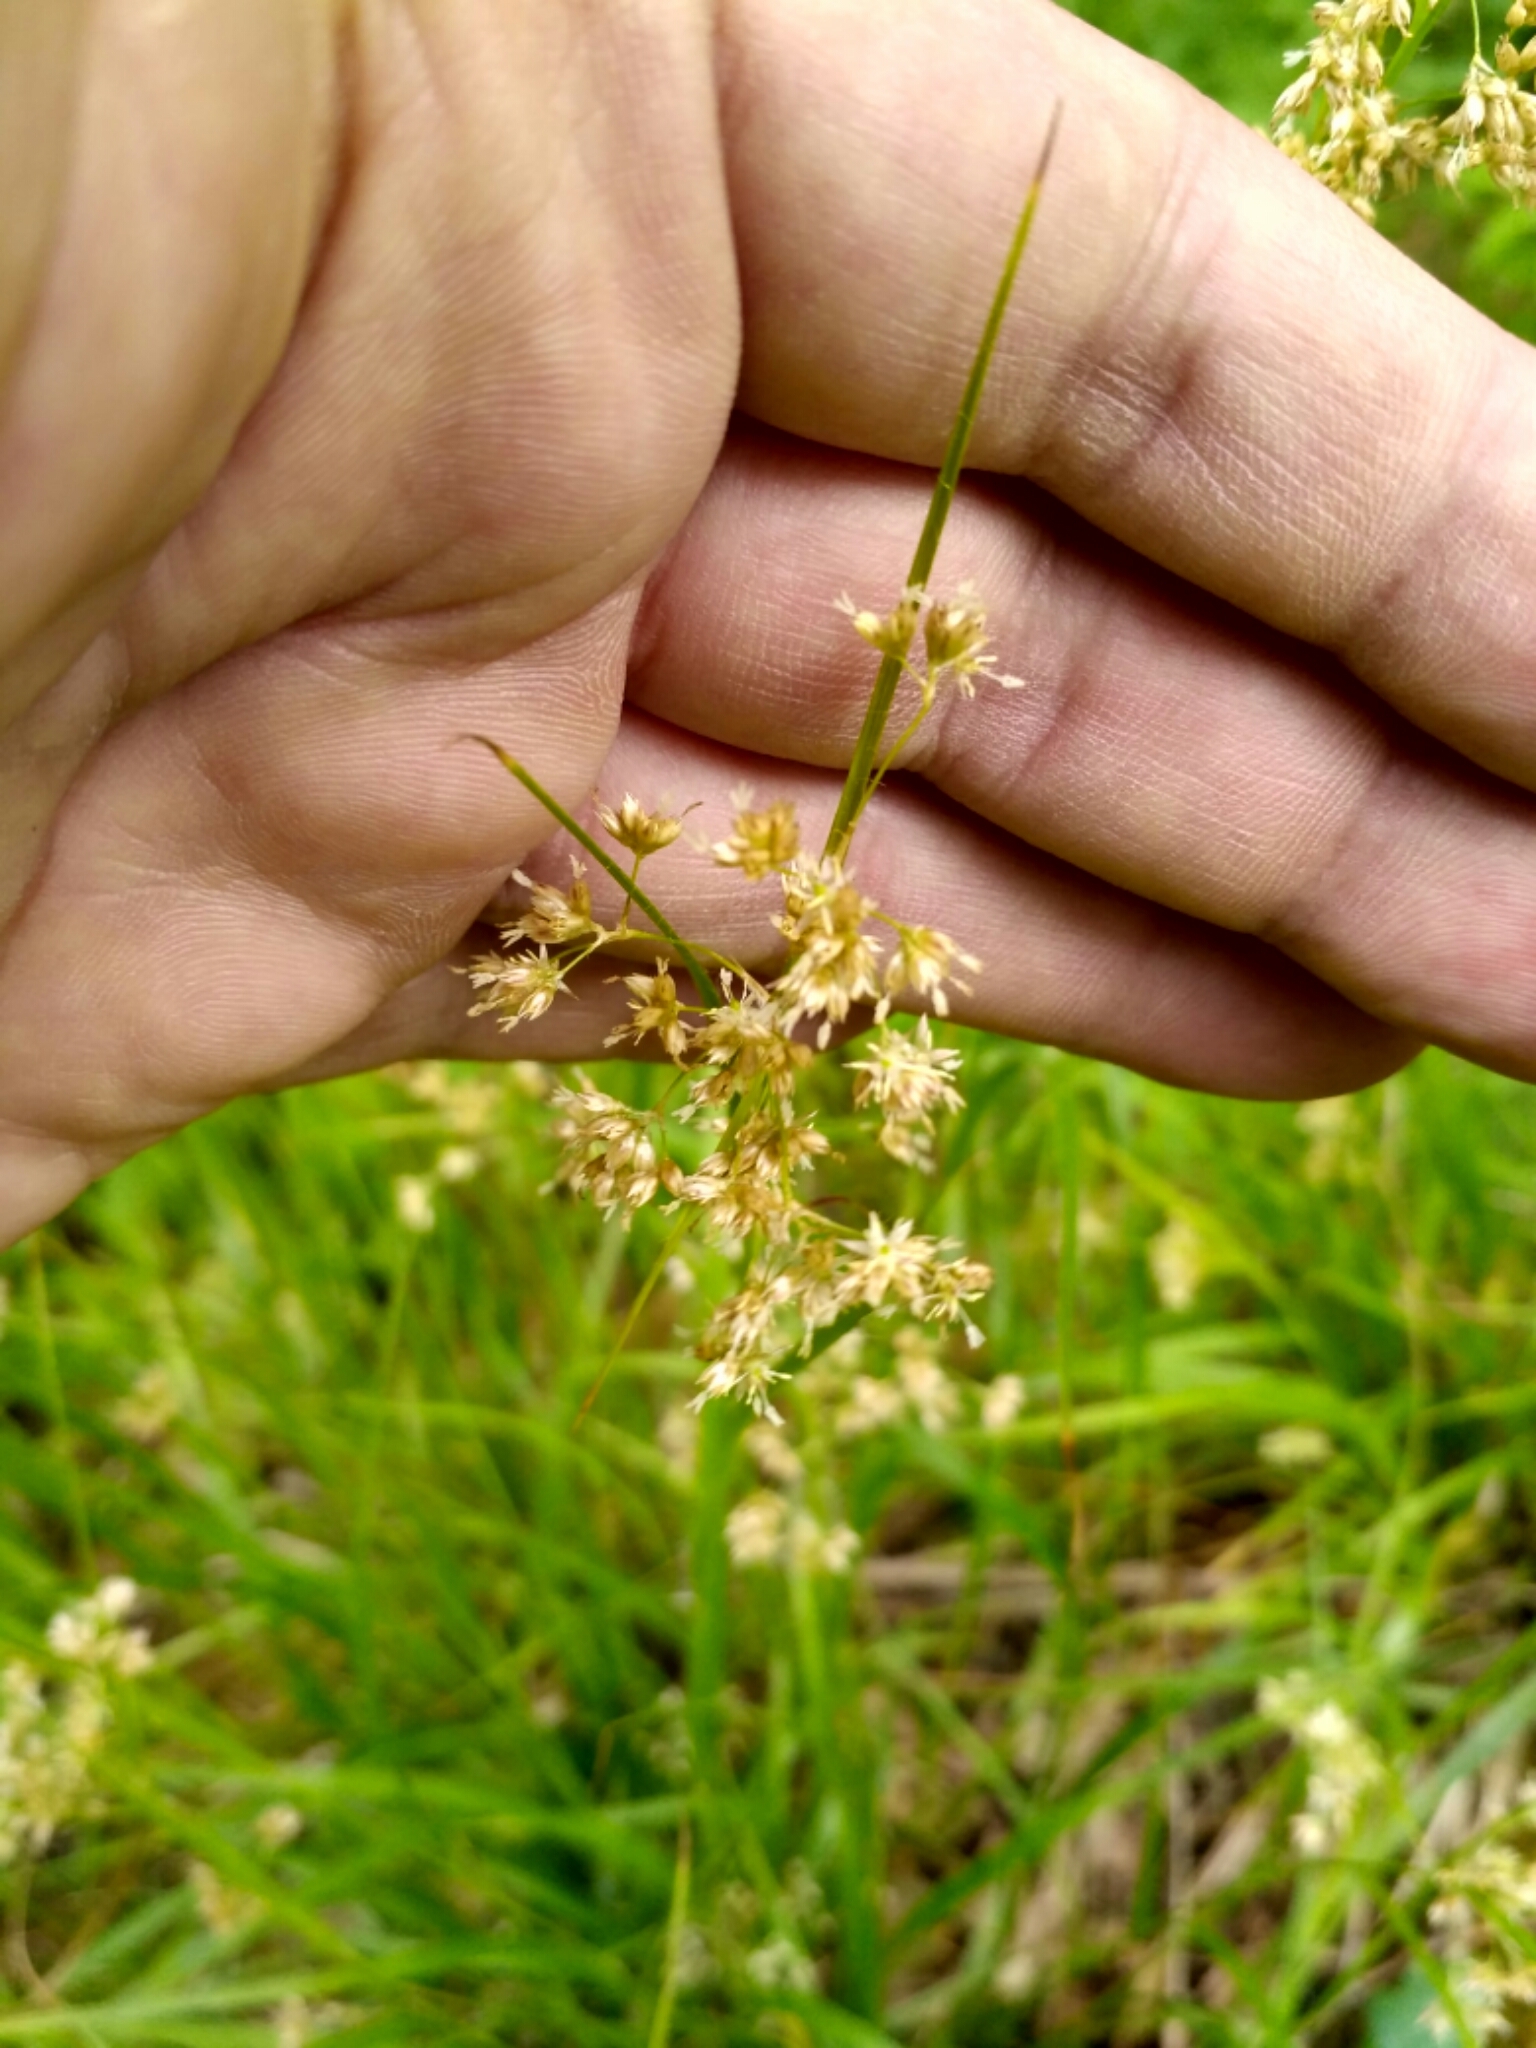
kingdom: Plantae
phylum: Tracheophyta
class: Liliopsida
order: Poales
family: Juncaceae
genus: Luzula
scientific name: Luzula luzuloides
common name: White wood-rush
